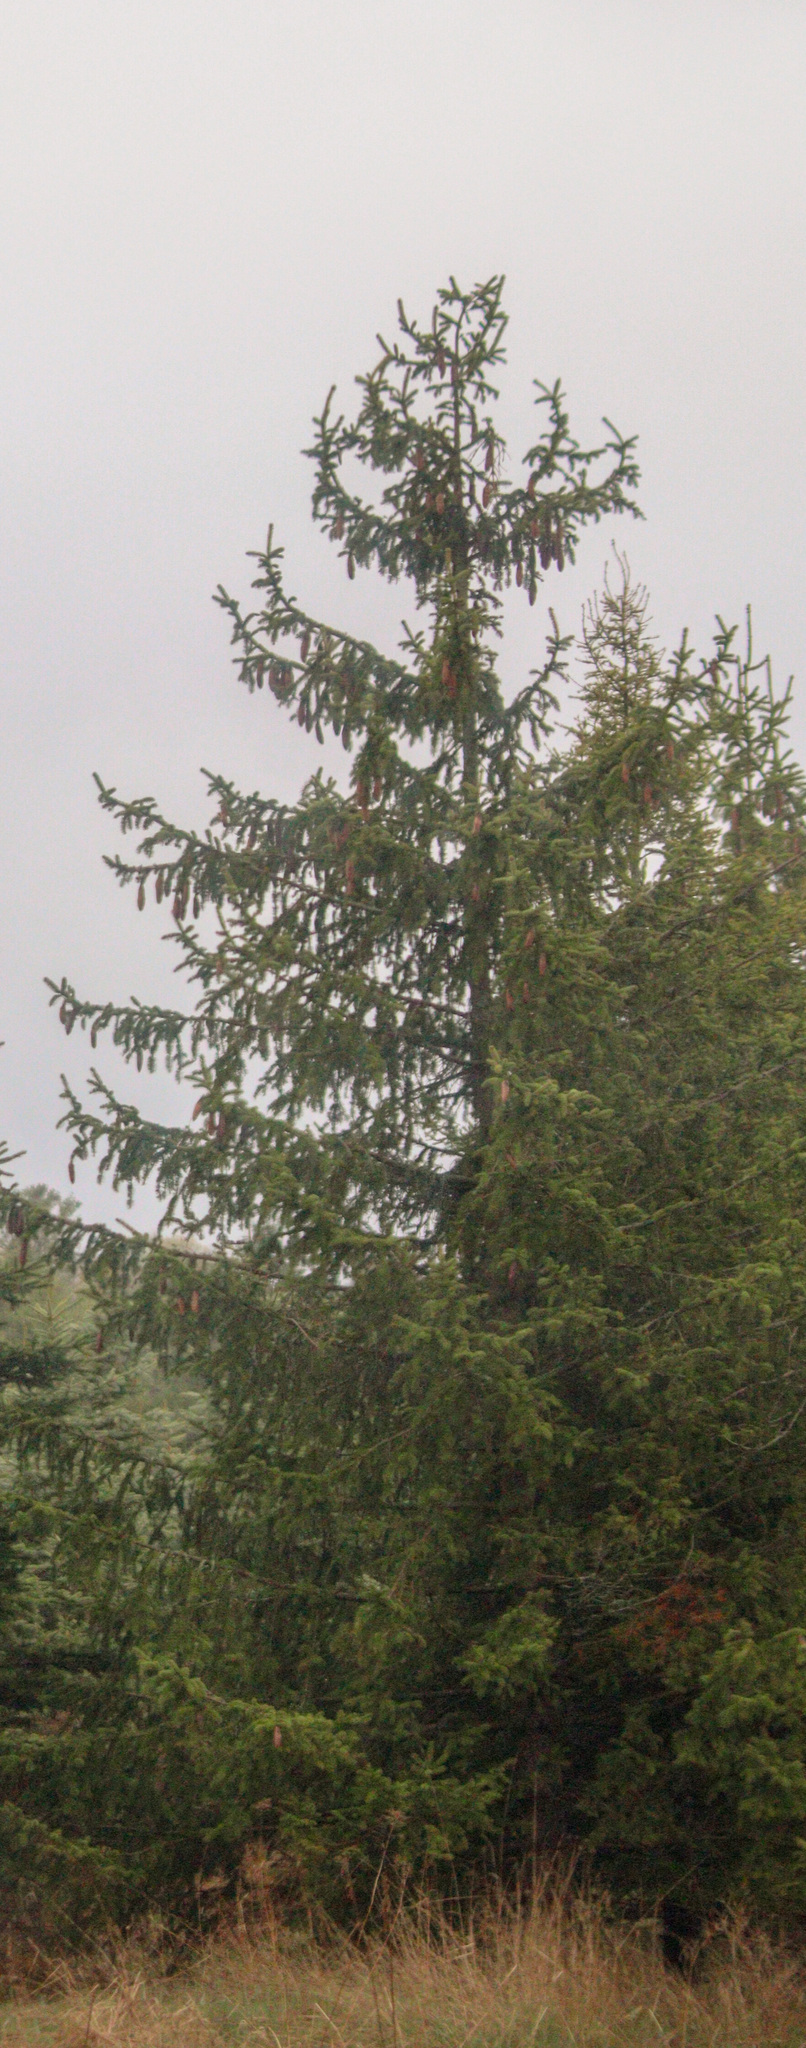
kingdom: Plantae
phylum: Tracheophyta
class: Pinopsida
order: Pinales
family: Pinaceae
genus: Picea
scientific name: Picea abies
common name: Norway spruce
